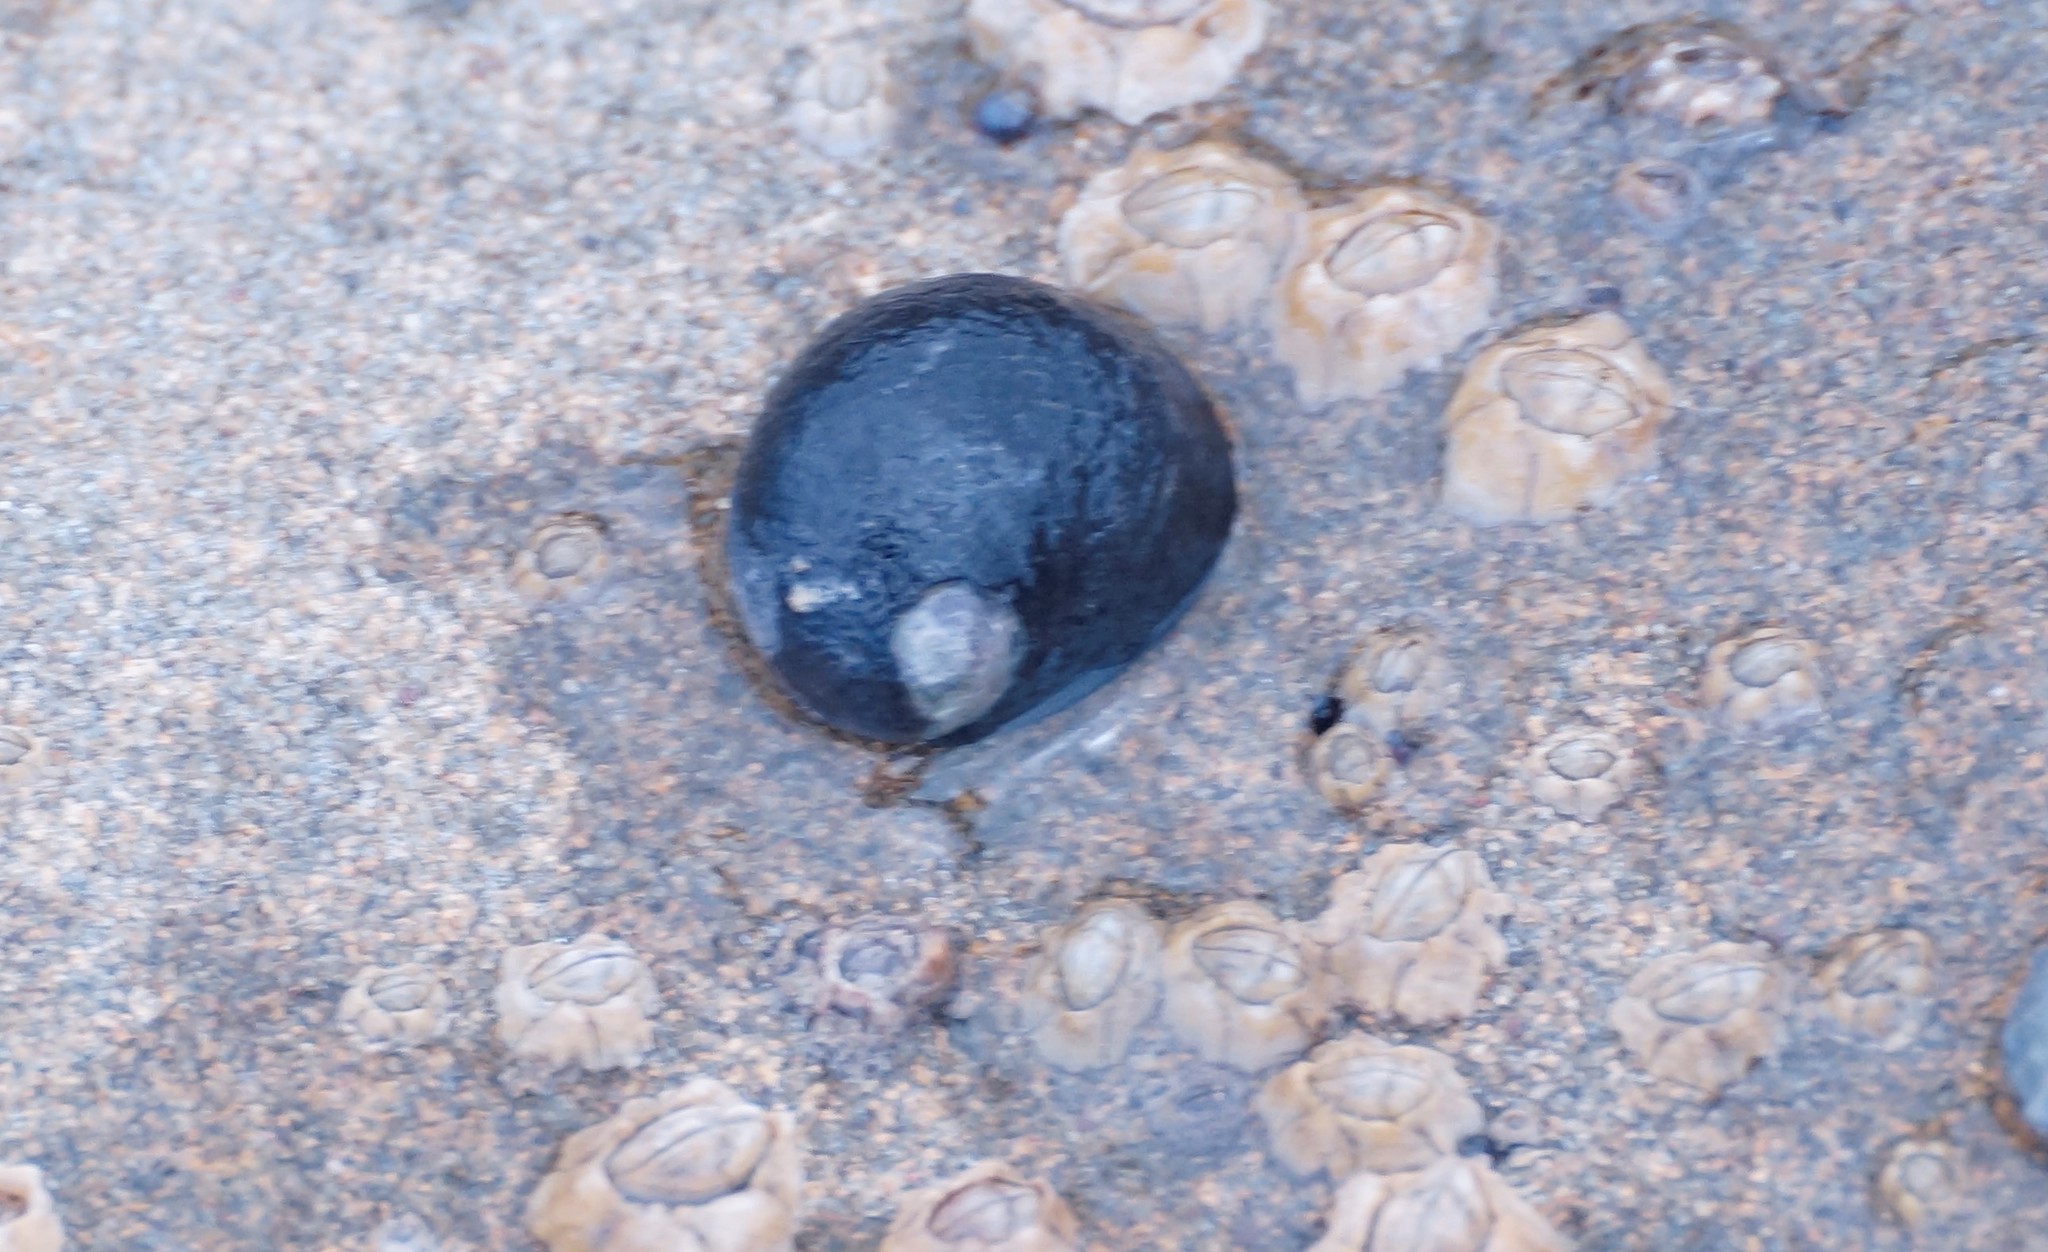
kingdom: Animalia
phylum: Mollusca
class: Gastropoda
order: Cycloneritida
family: Neritidae
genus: Nerita
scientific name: Nerita atramentosa
